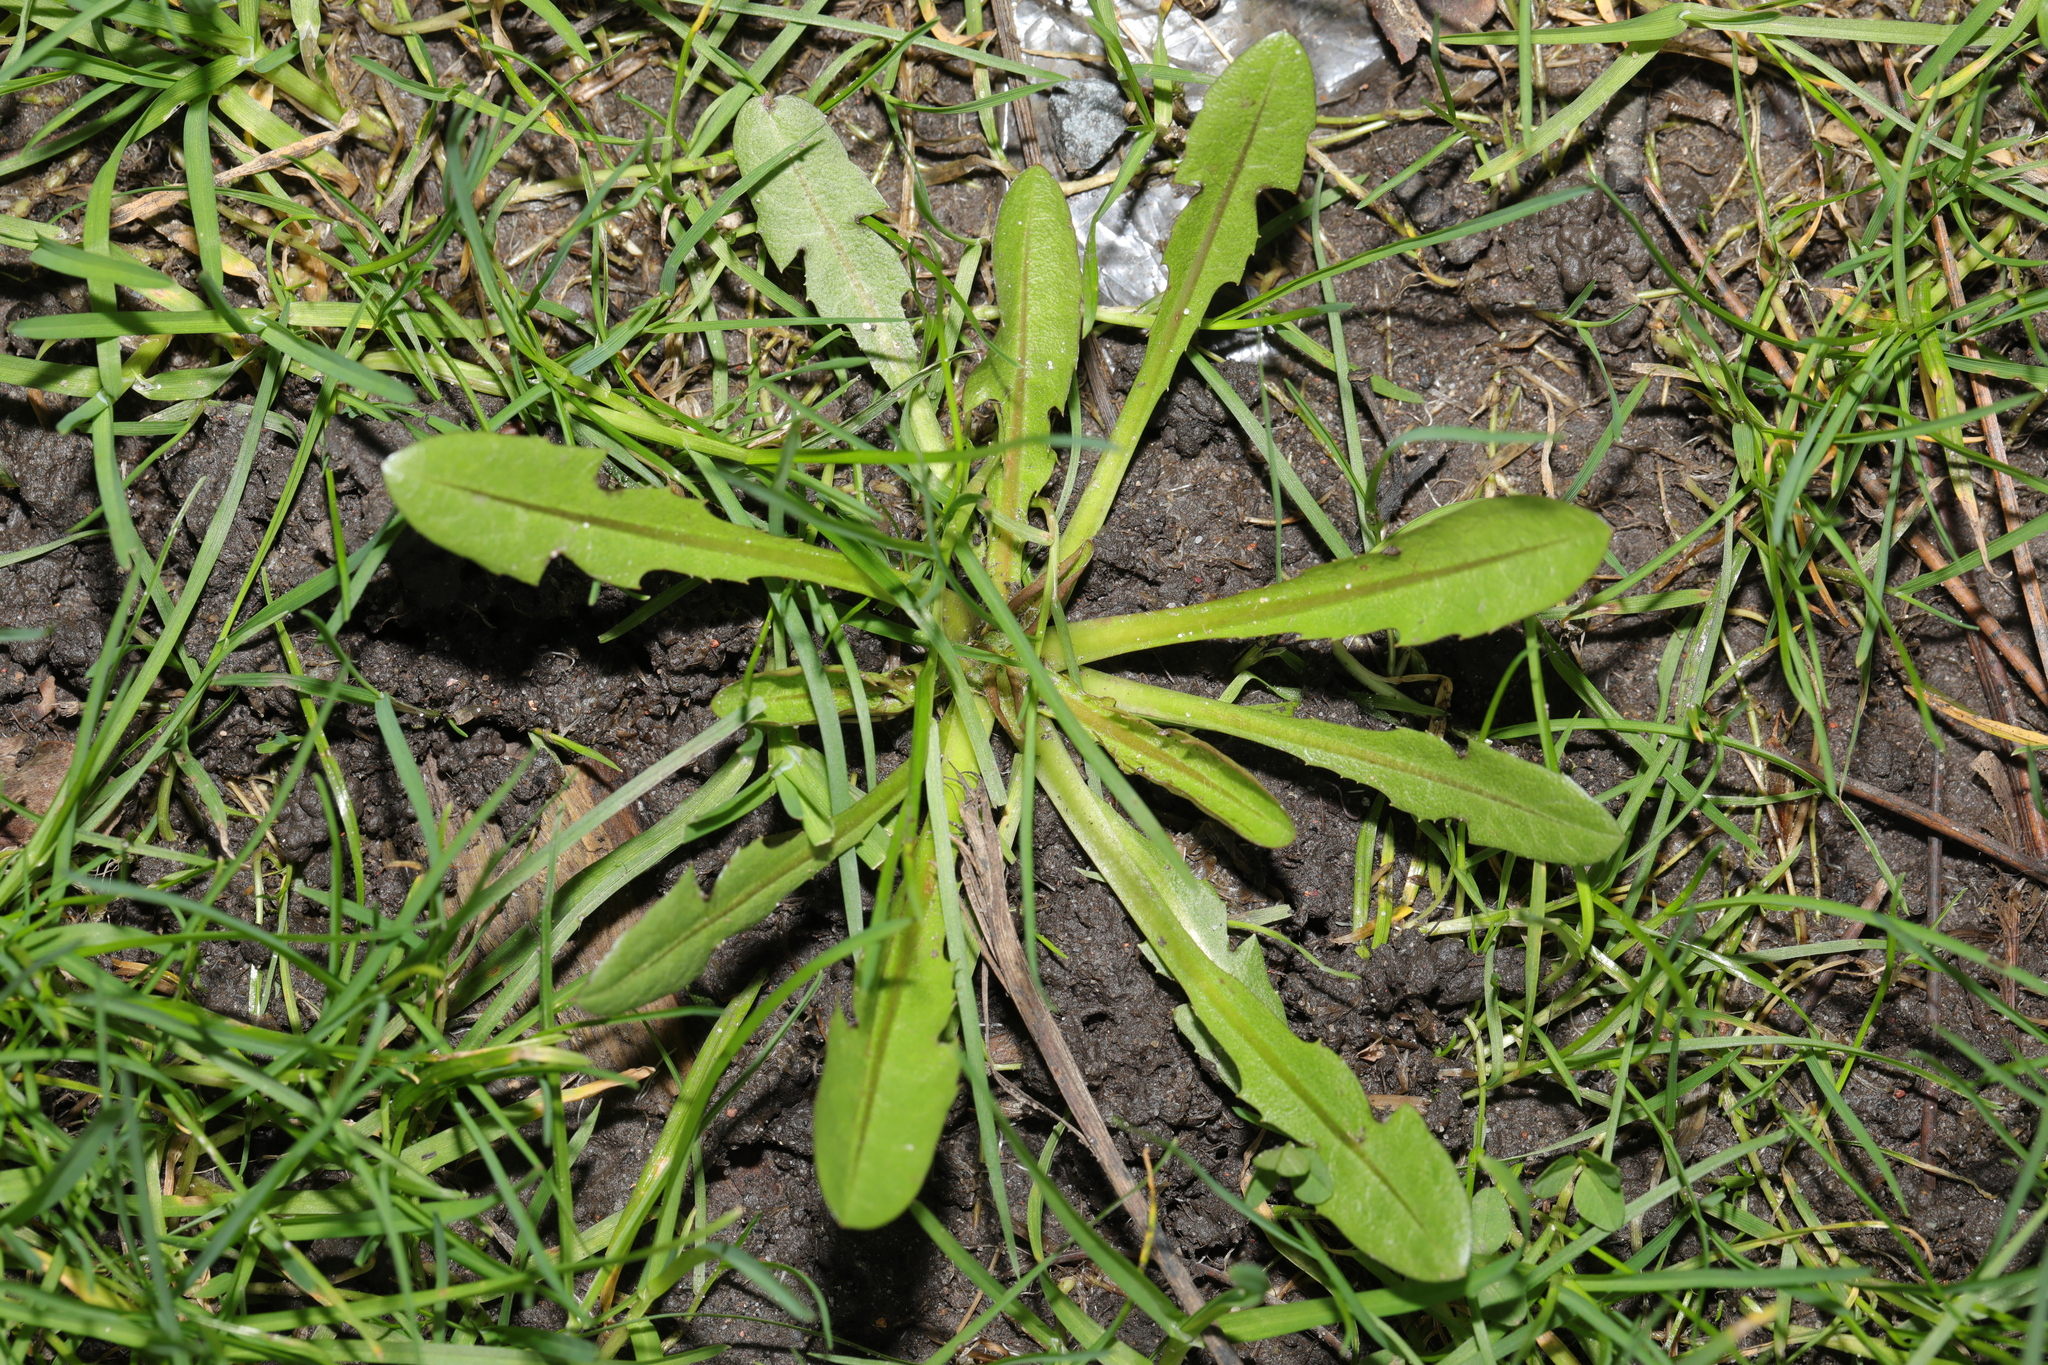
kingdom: Plantae
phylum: Tracheophyta
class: Magnoliopsida
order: Asterales
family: Asteraceae
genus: Taraxacum
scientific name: Taraxacum officinale
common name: Common dandelion
